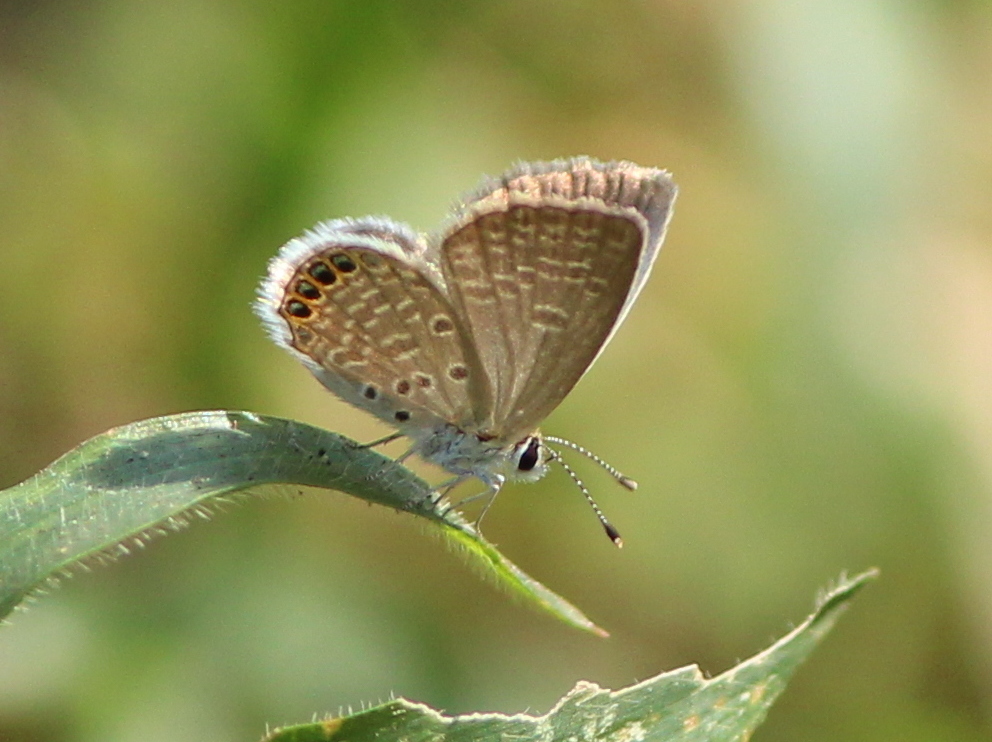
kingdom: Animalia
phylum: Arthropoda
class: Insecta
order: Lepidoptera
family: Lycaenidae
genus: Freyeria
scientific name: Freyeria putli
